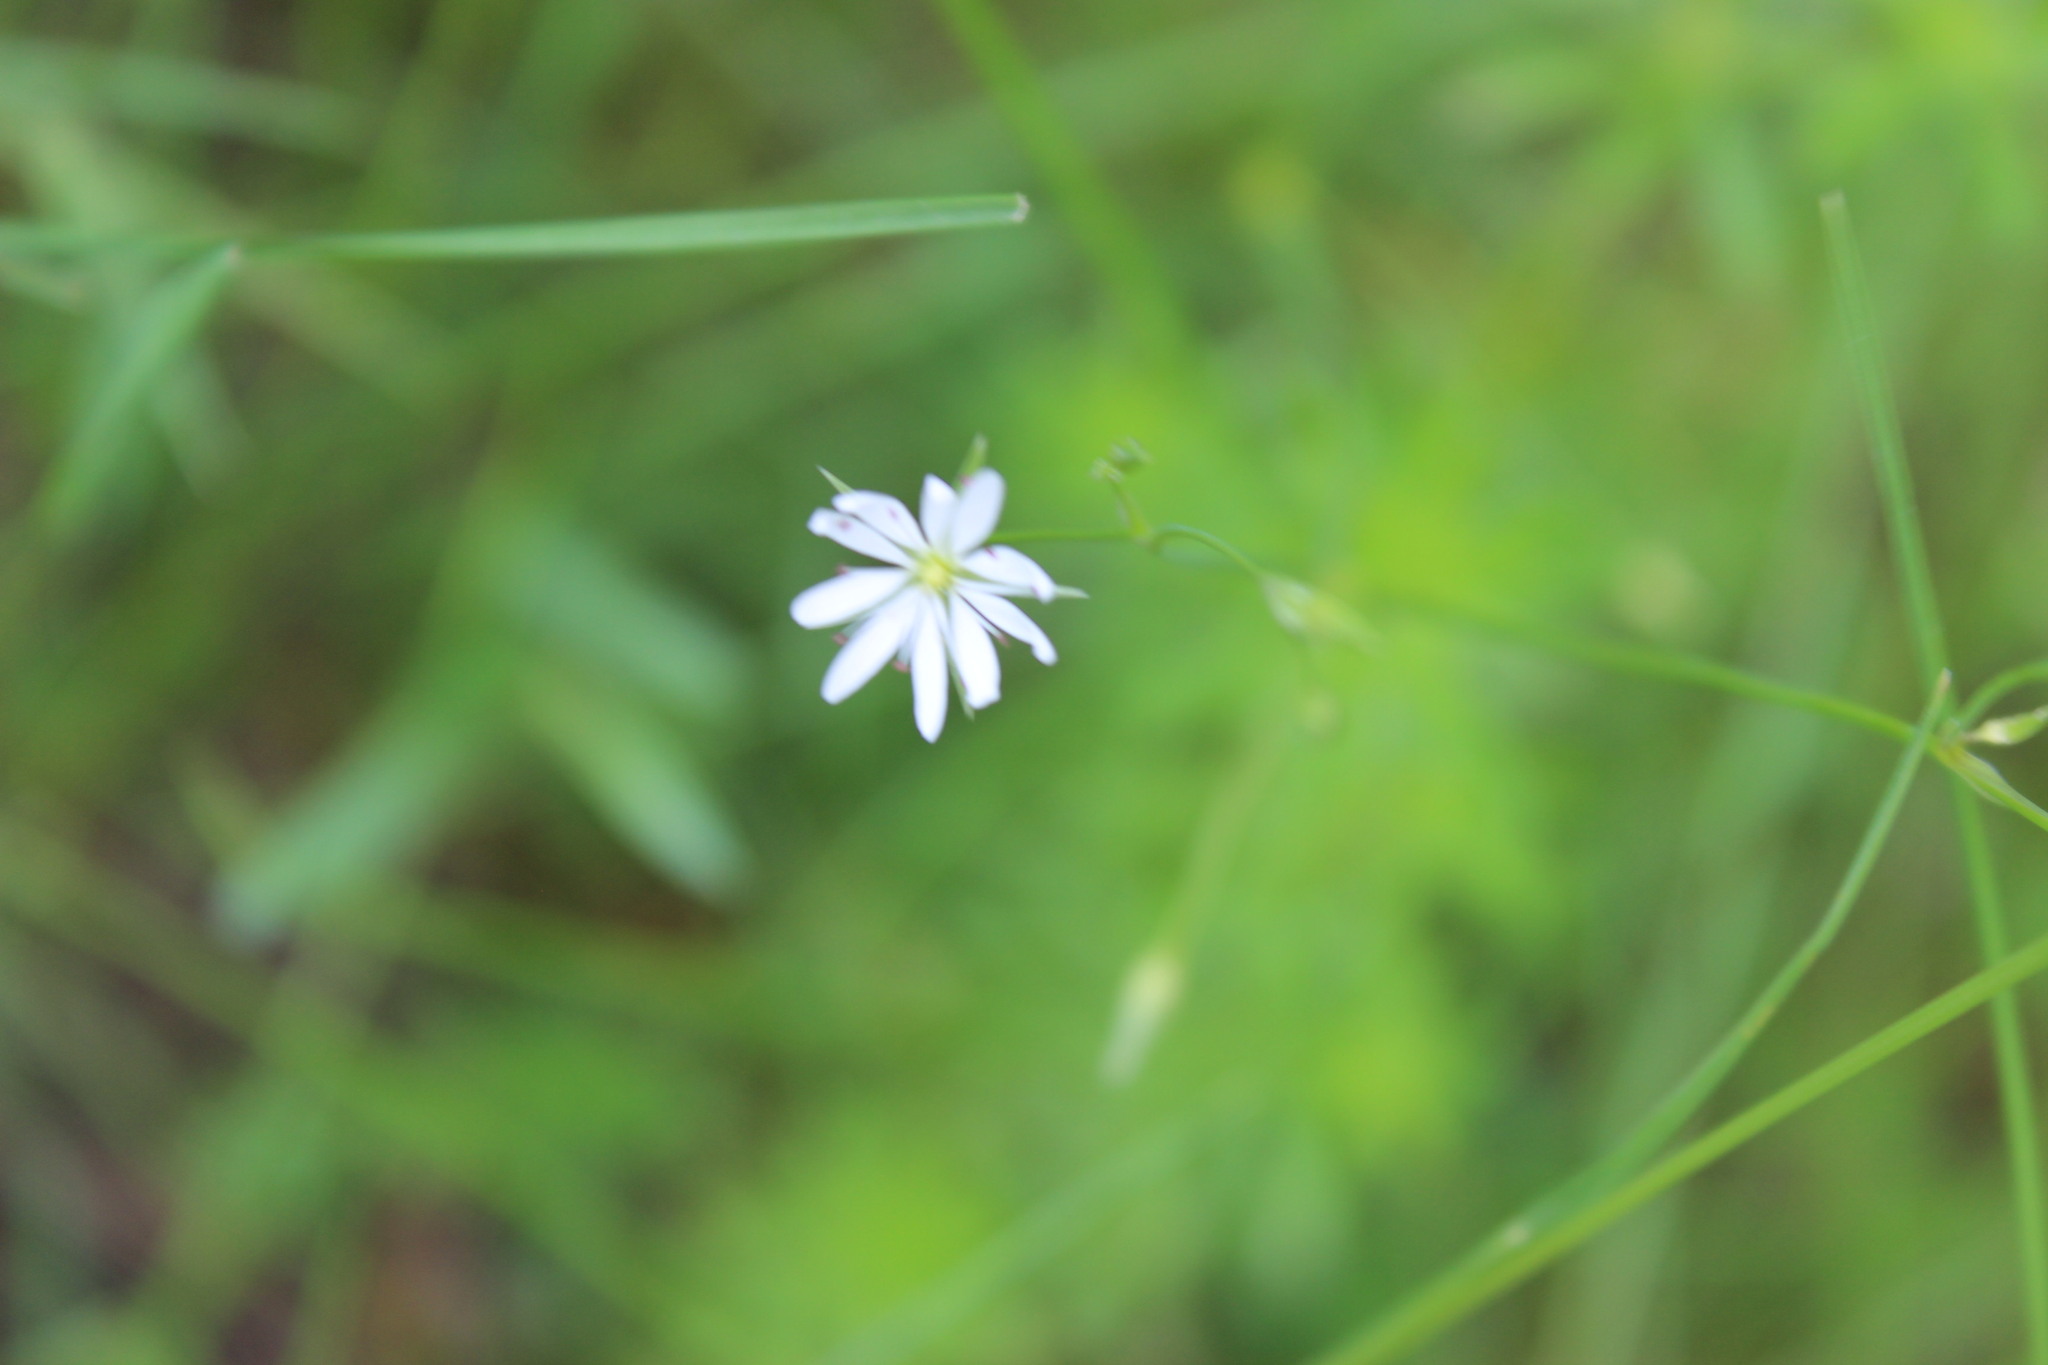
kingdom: Plantae
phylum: Tracheophyta
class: Magnoliopsida
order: Caryophyllales
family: Caryophyllaceae
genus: Stellaria
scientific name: Stellaria graminea
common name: Grass-like starwort
